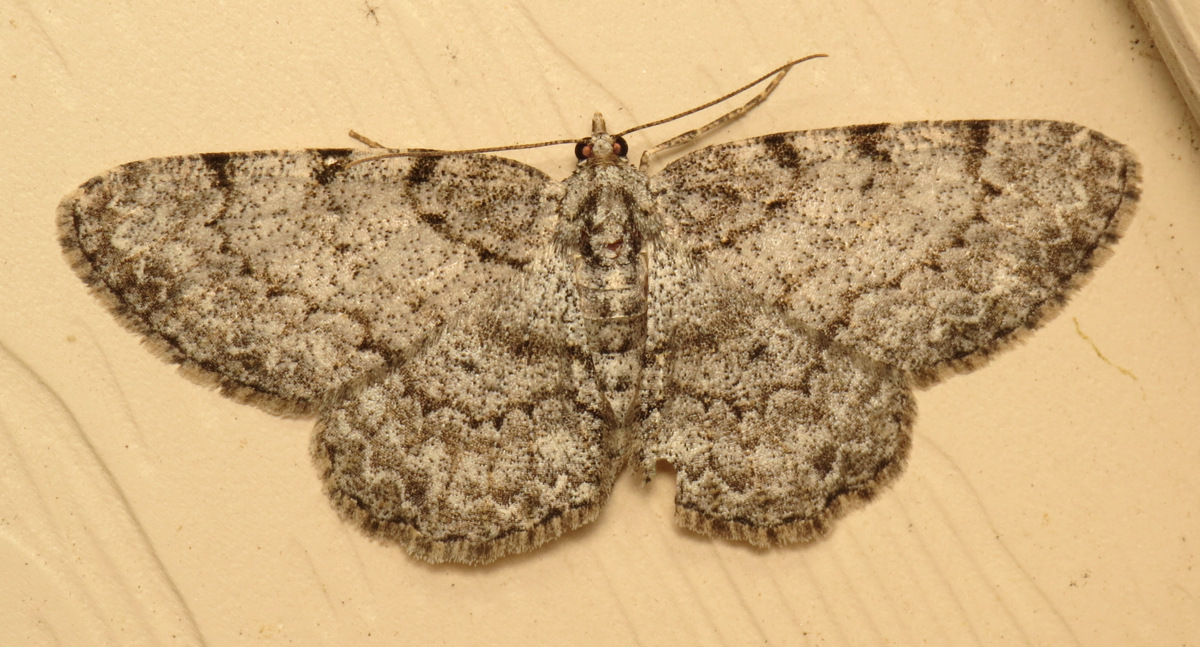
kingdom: Animalia
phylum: Arthropoda
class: Insecta
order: Lepidoptera
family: Geometridae
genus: Protoboarmia
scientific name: Protoboarmia porcelaria
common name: Porcelain gray
